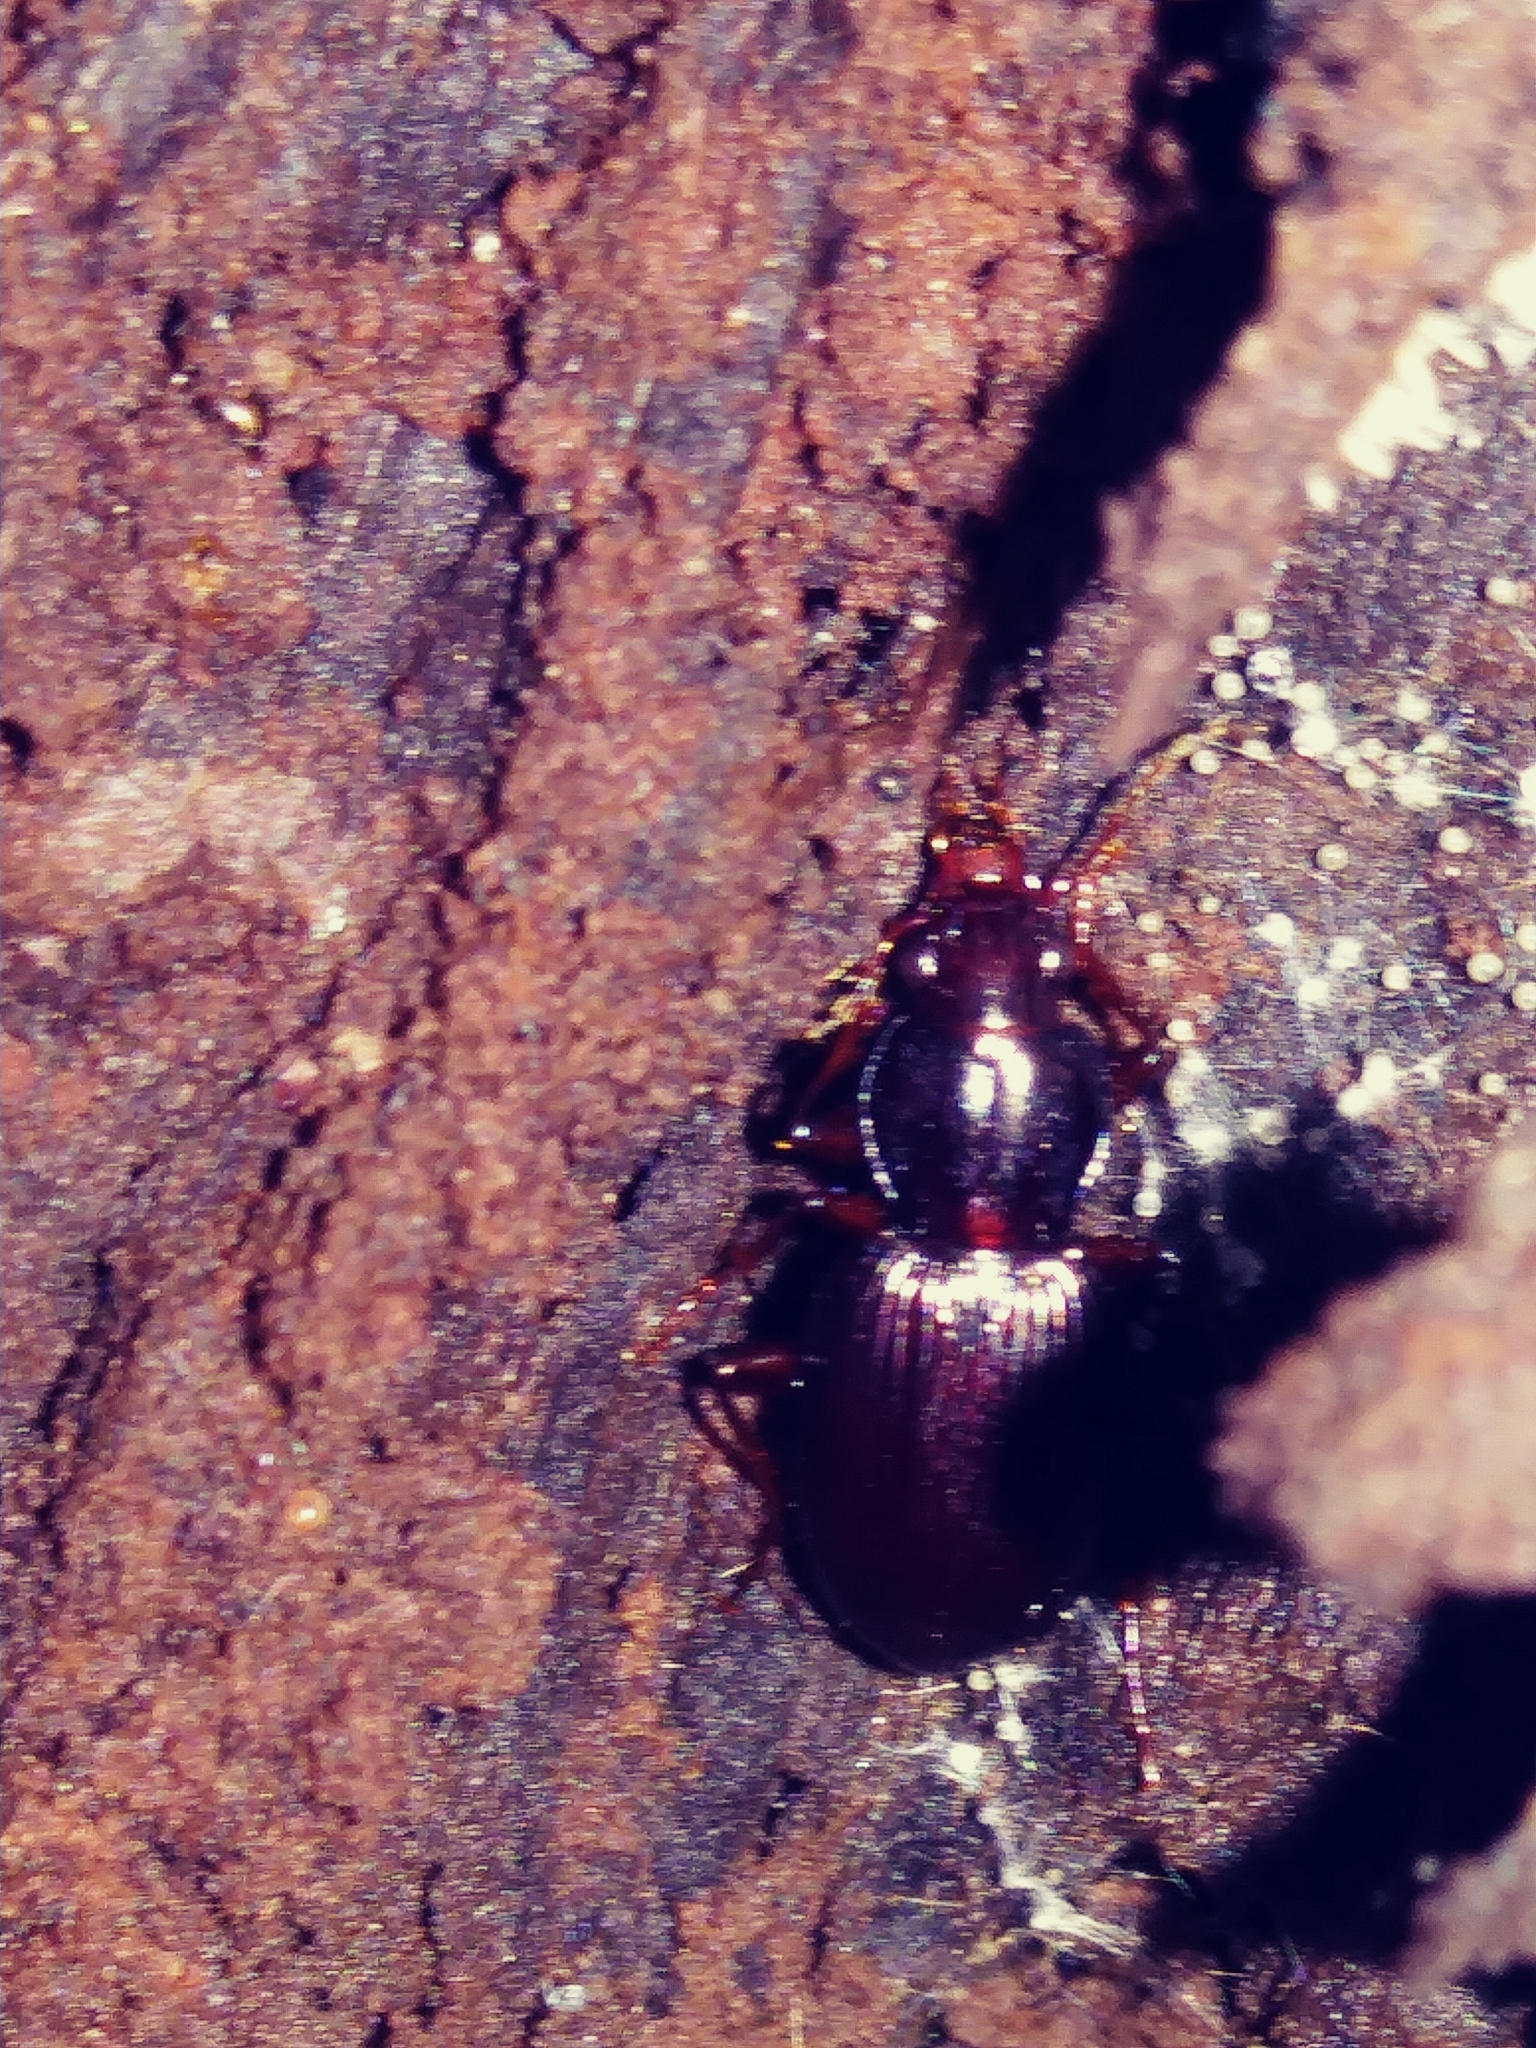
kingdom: Animalia
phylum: Arthropoda
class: Insecta
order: Coleoptera
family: Carabidae
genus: Gastrellarius
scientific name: Gastrellarius honestus
